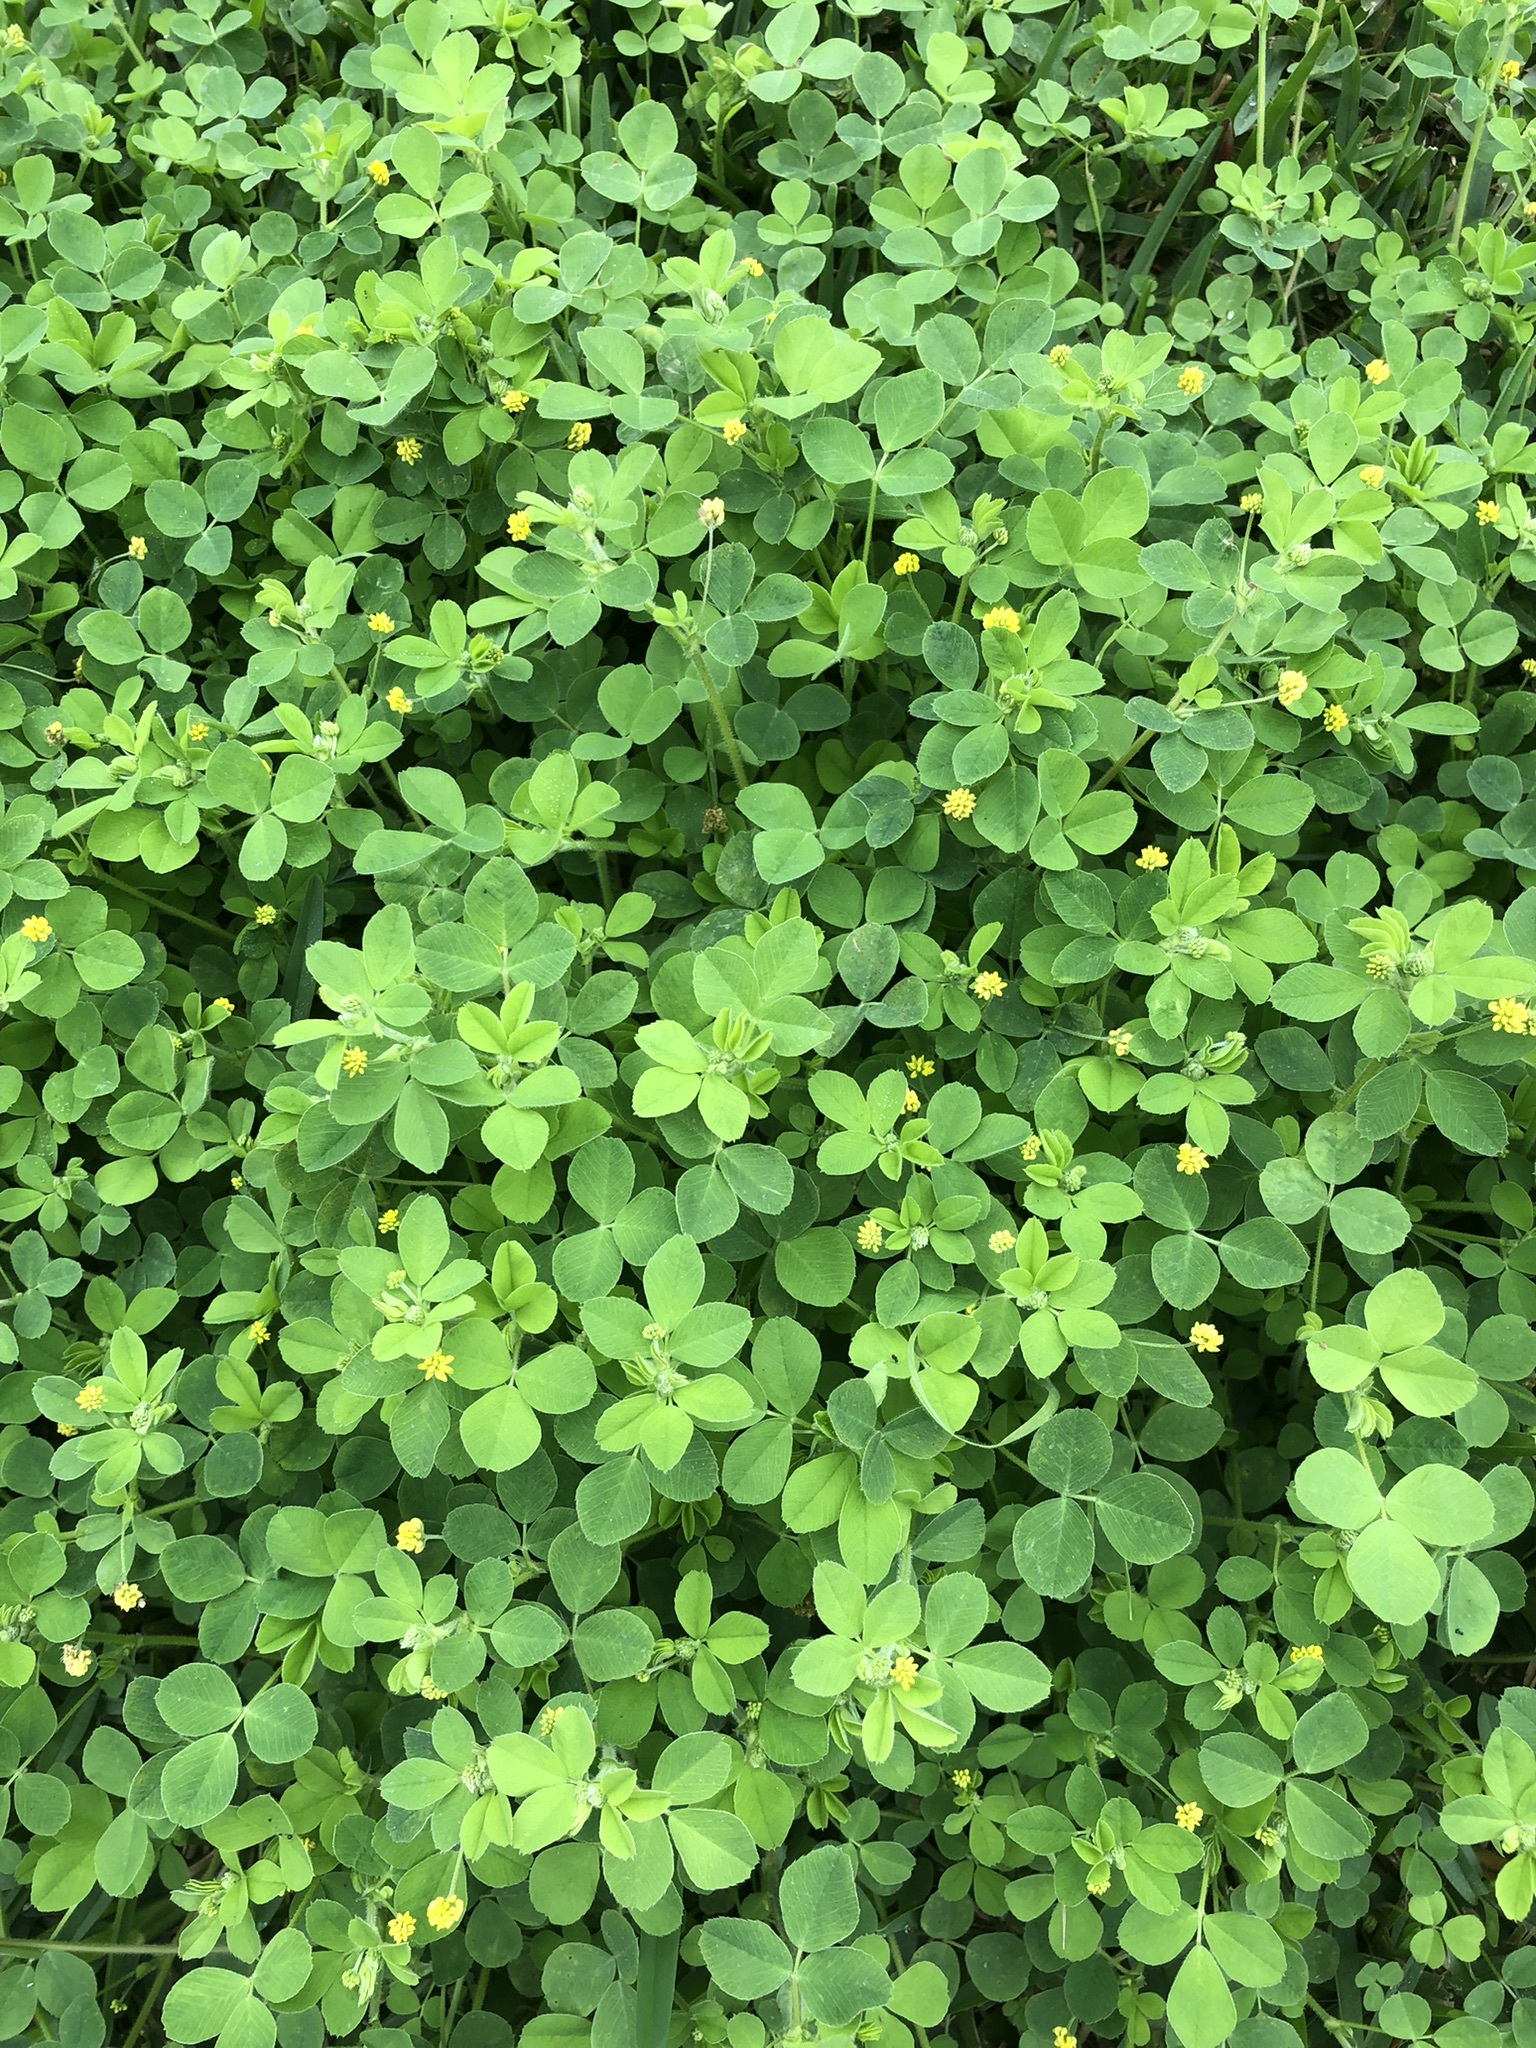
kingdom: Plantae
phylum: Tracheophyta
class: Magnoliopsida
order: Fabales
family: Fabaceae
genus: Medicago
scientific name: Medicago lupulina
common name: Black medick
